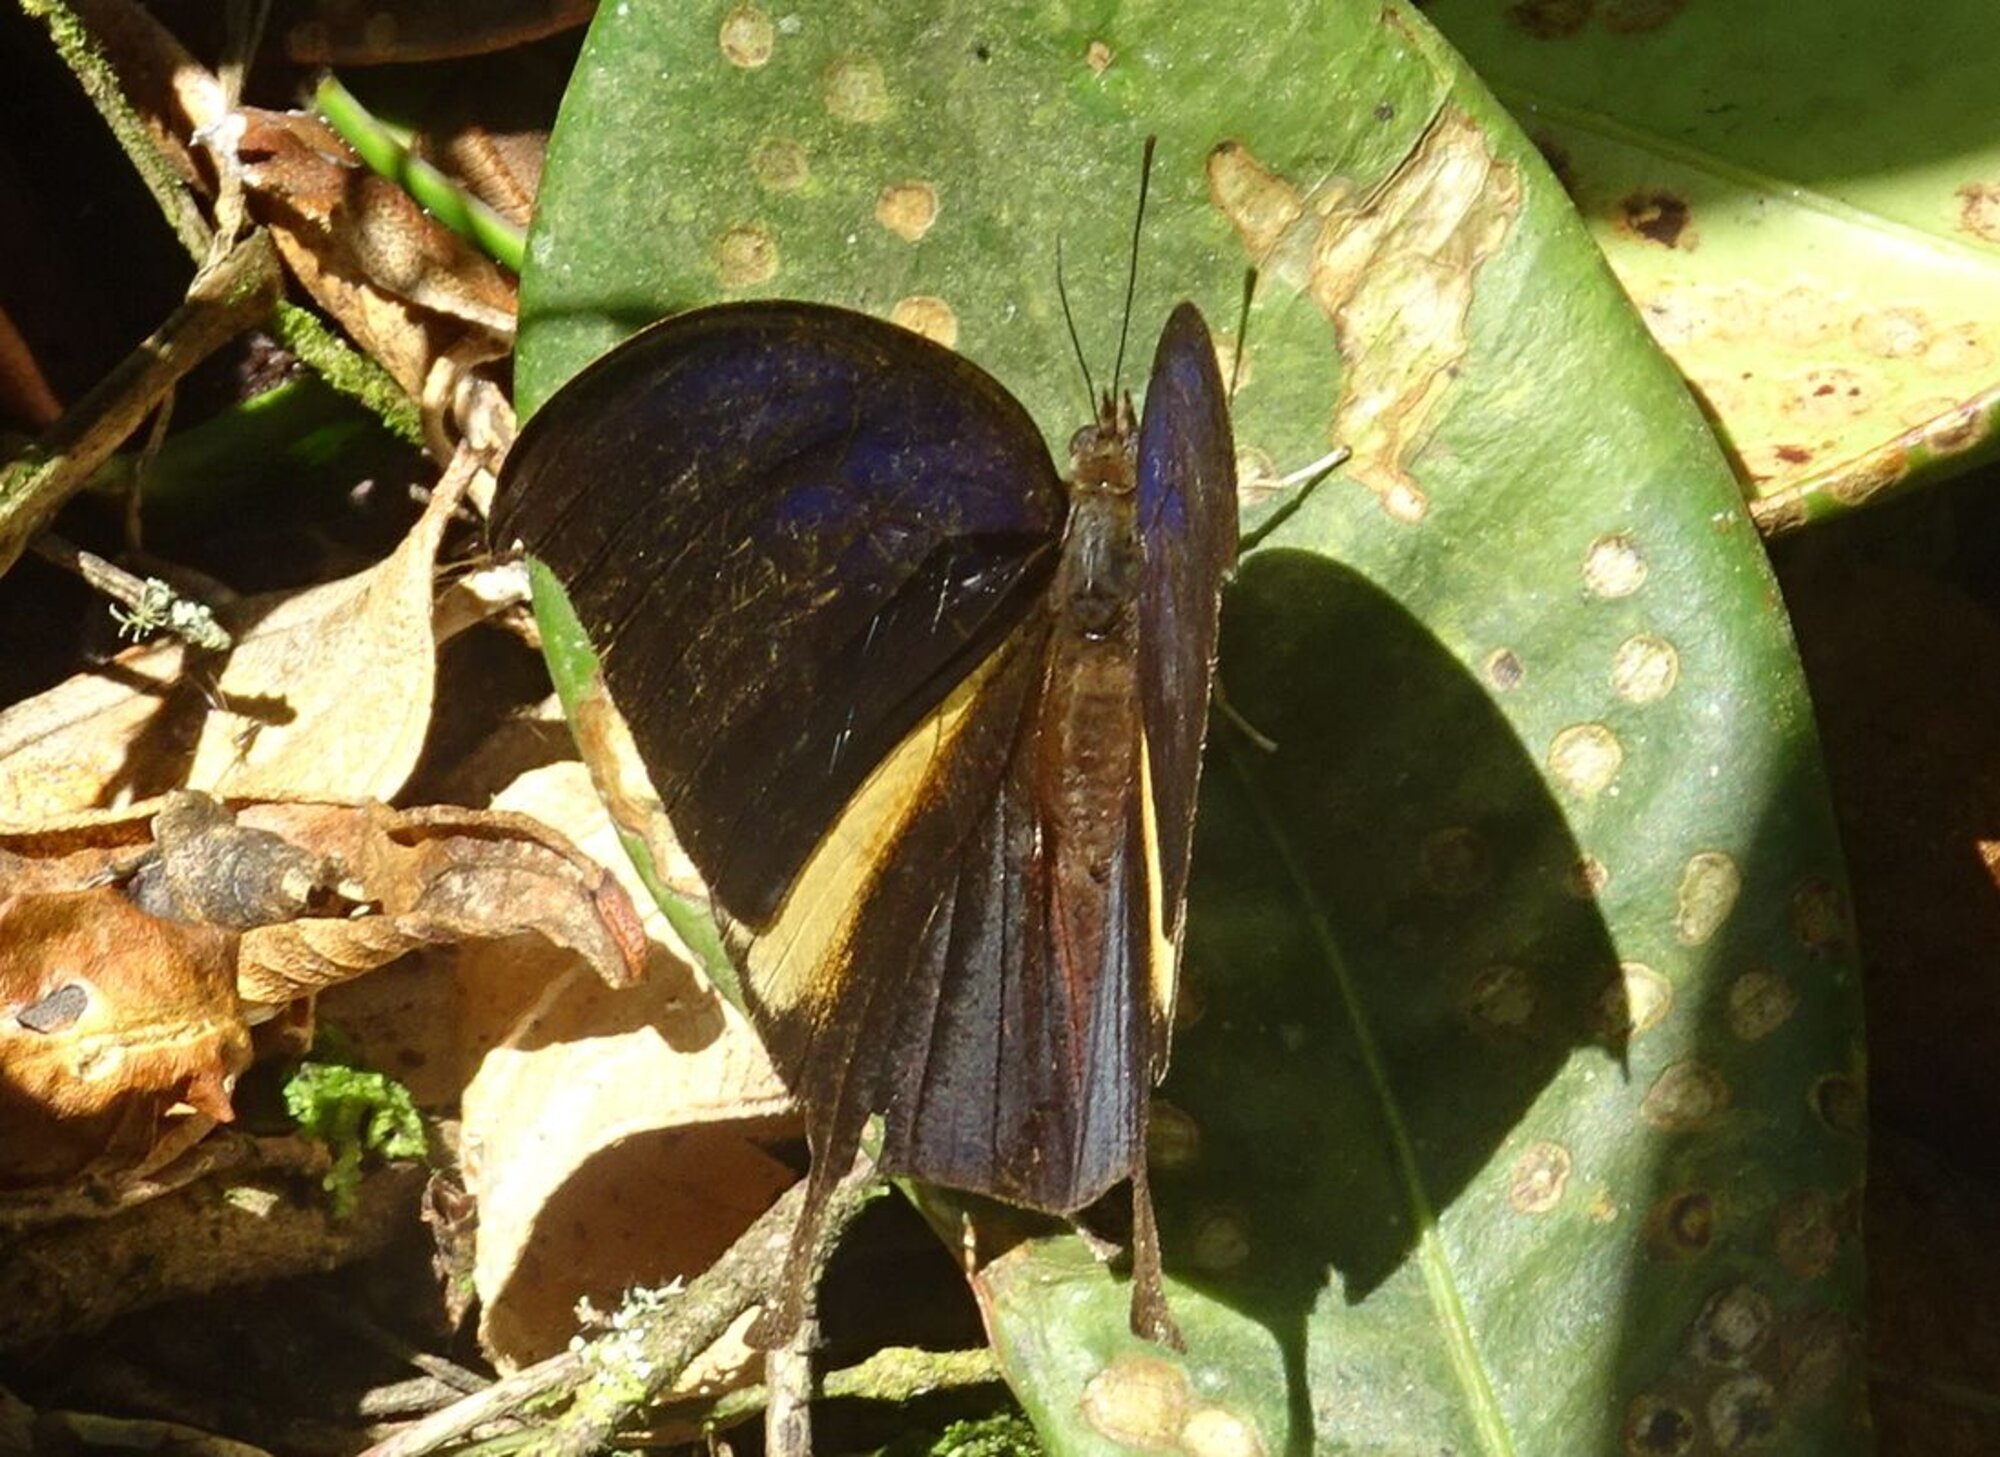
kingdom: Animalia
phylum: Arthropoda
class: Insecta
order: Lepidoptera
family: Nymphalidae
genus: Consul
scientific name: Consul panariste
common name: Tricolored leafwing
